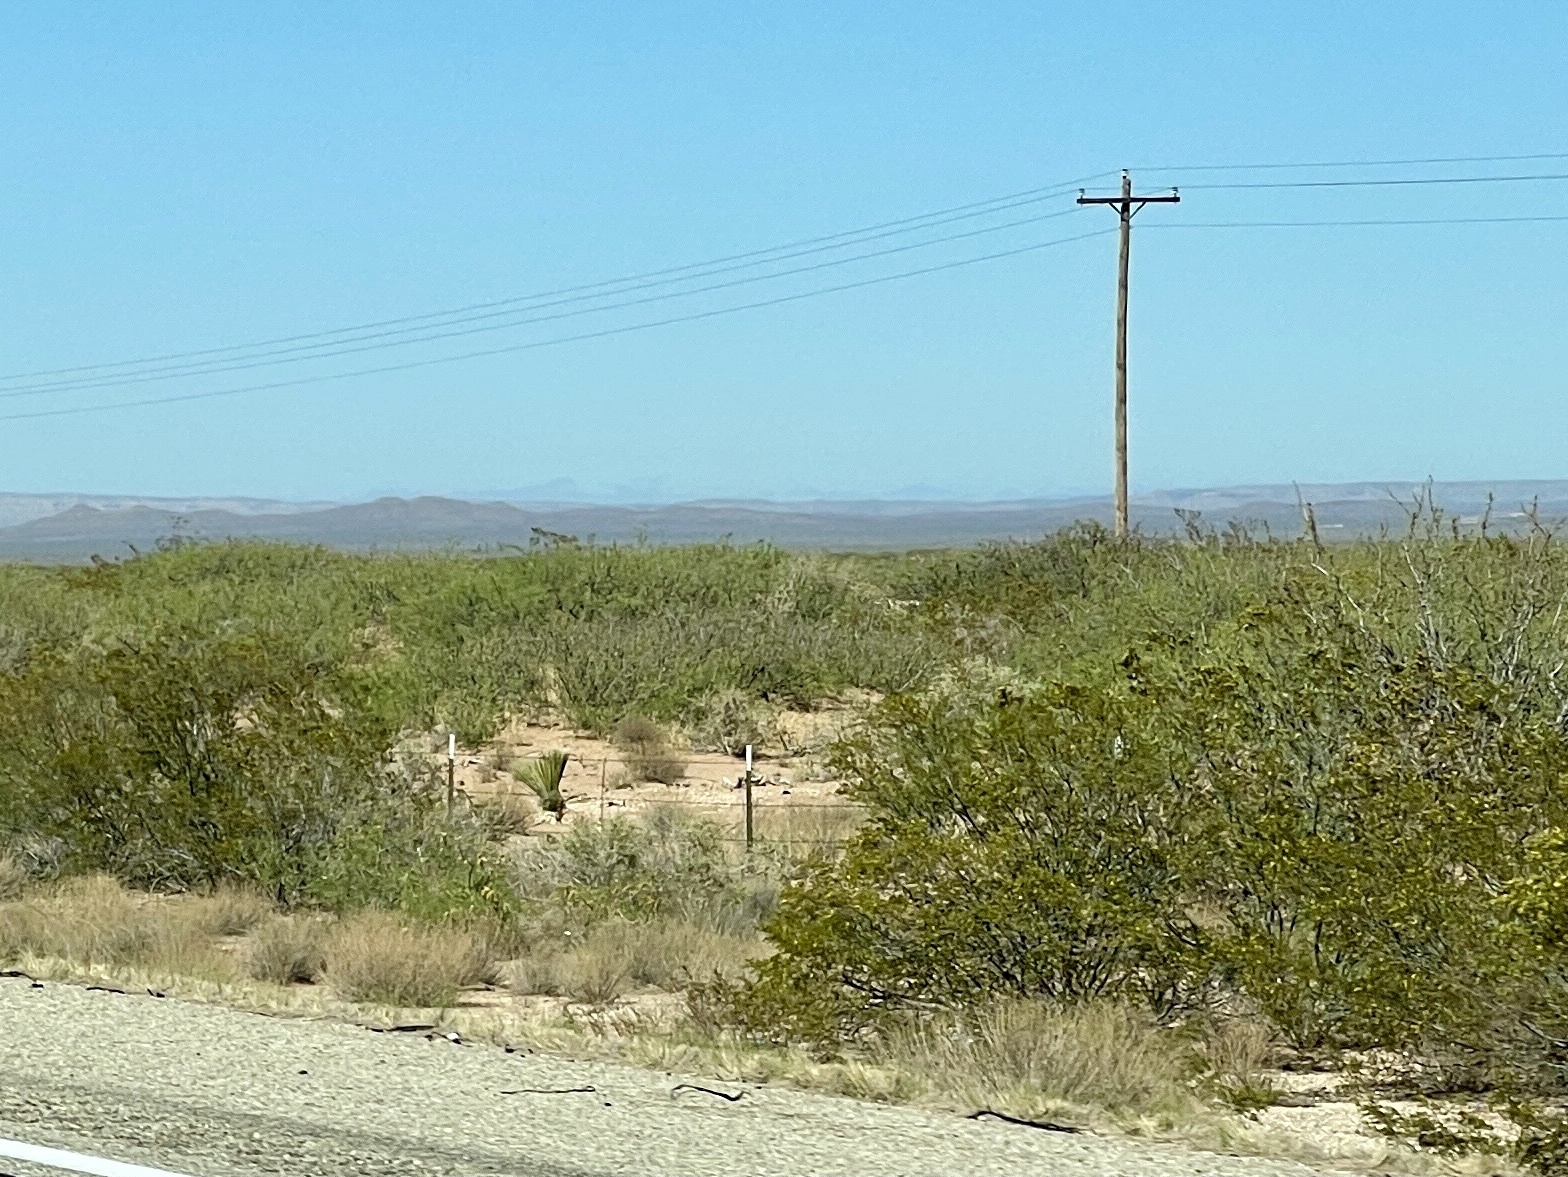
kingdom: Plantae
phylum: Tracheophyta
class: Magnoliopsida
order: Zygophyllales
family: Zygophyllaceae
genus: Larrea
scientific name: Larrea tridentata
